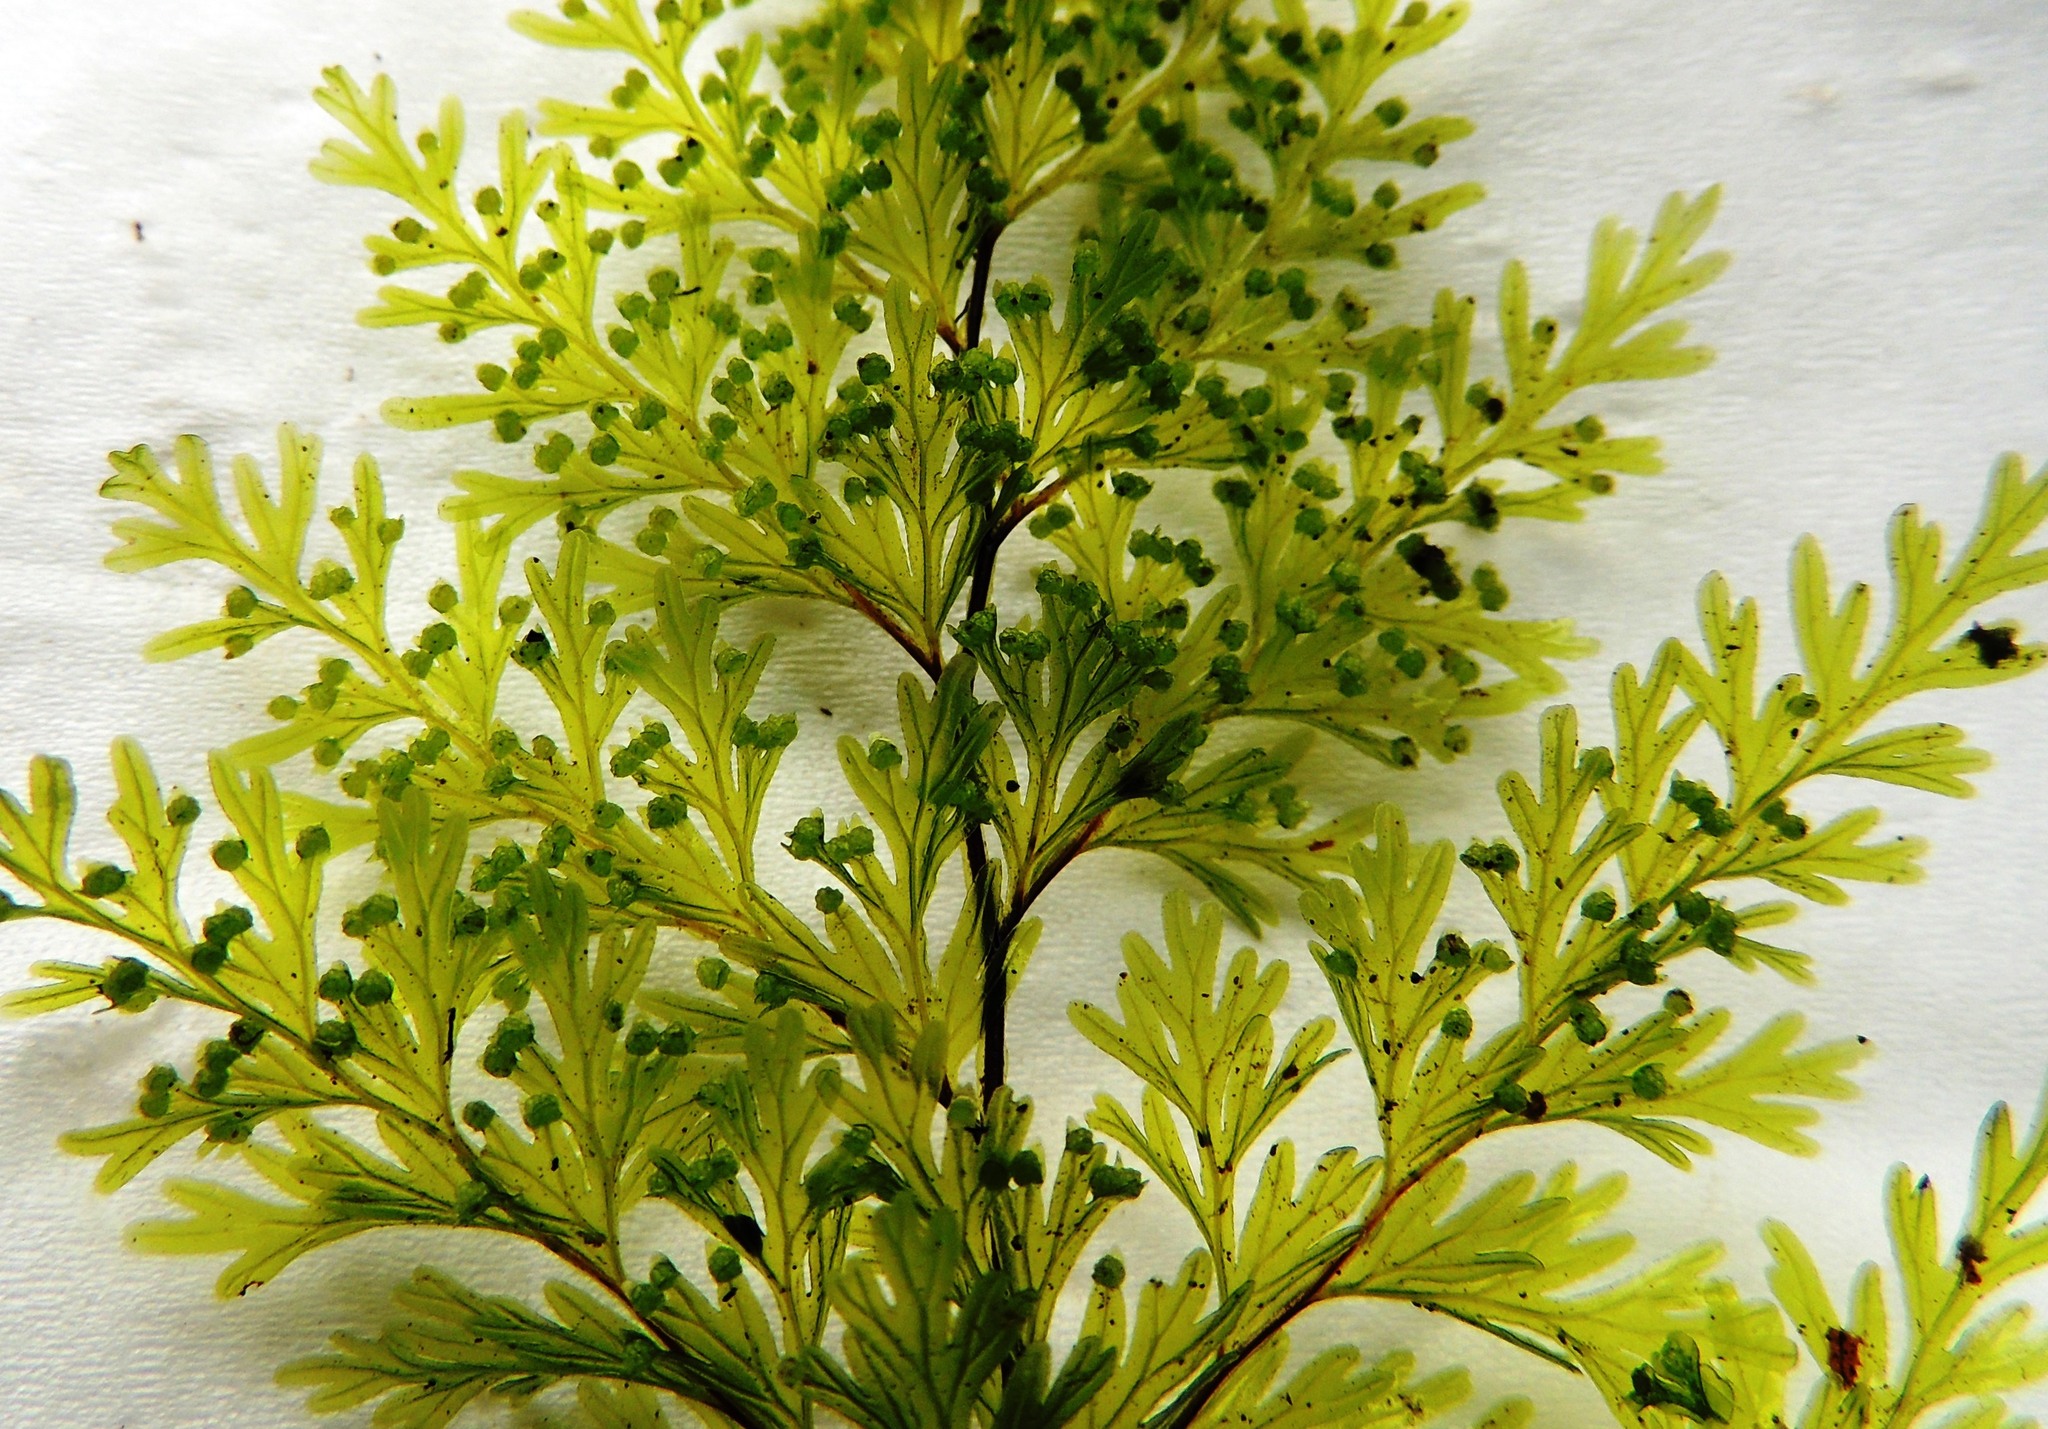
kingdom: Plantae
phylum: Tracheophyta
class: Polypodiopsida
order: Hymenophyllales
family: Hymenophyllaceae
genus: Hymenophyllum
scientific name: Hymenophyllum demissum
